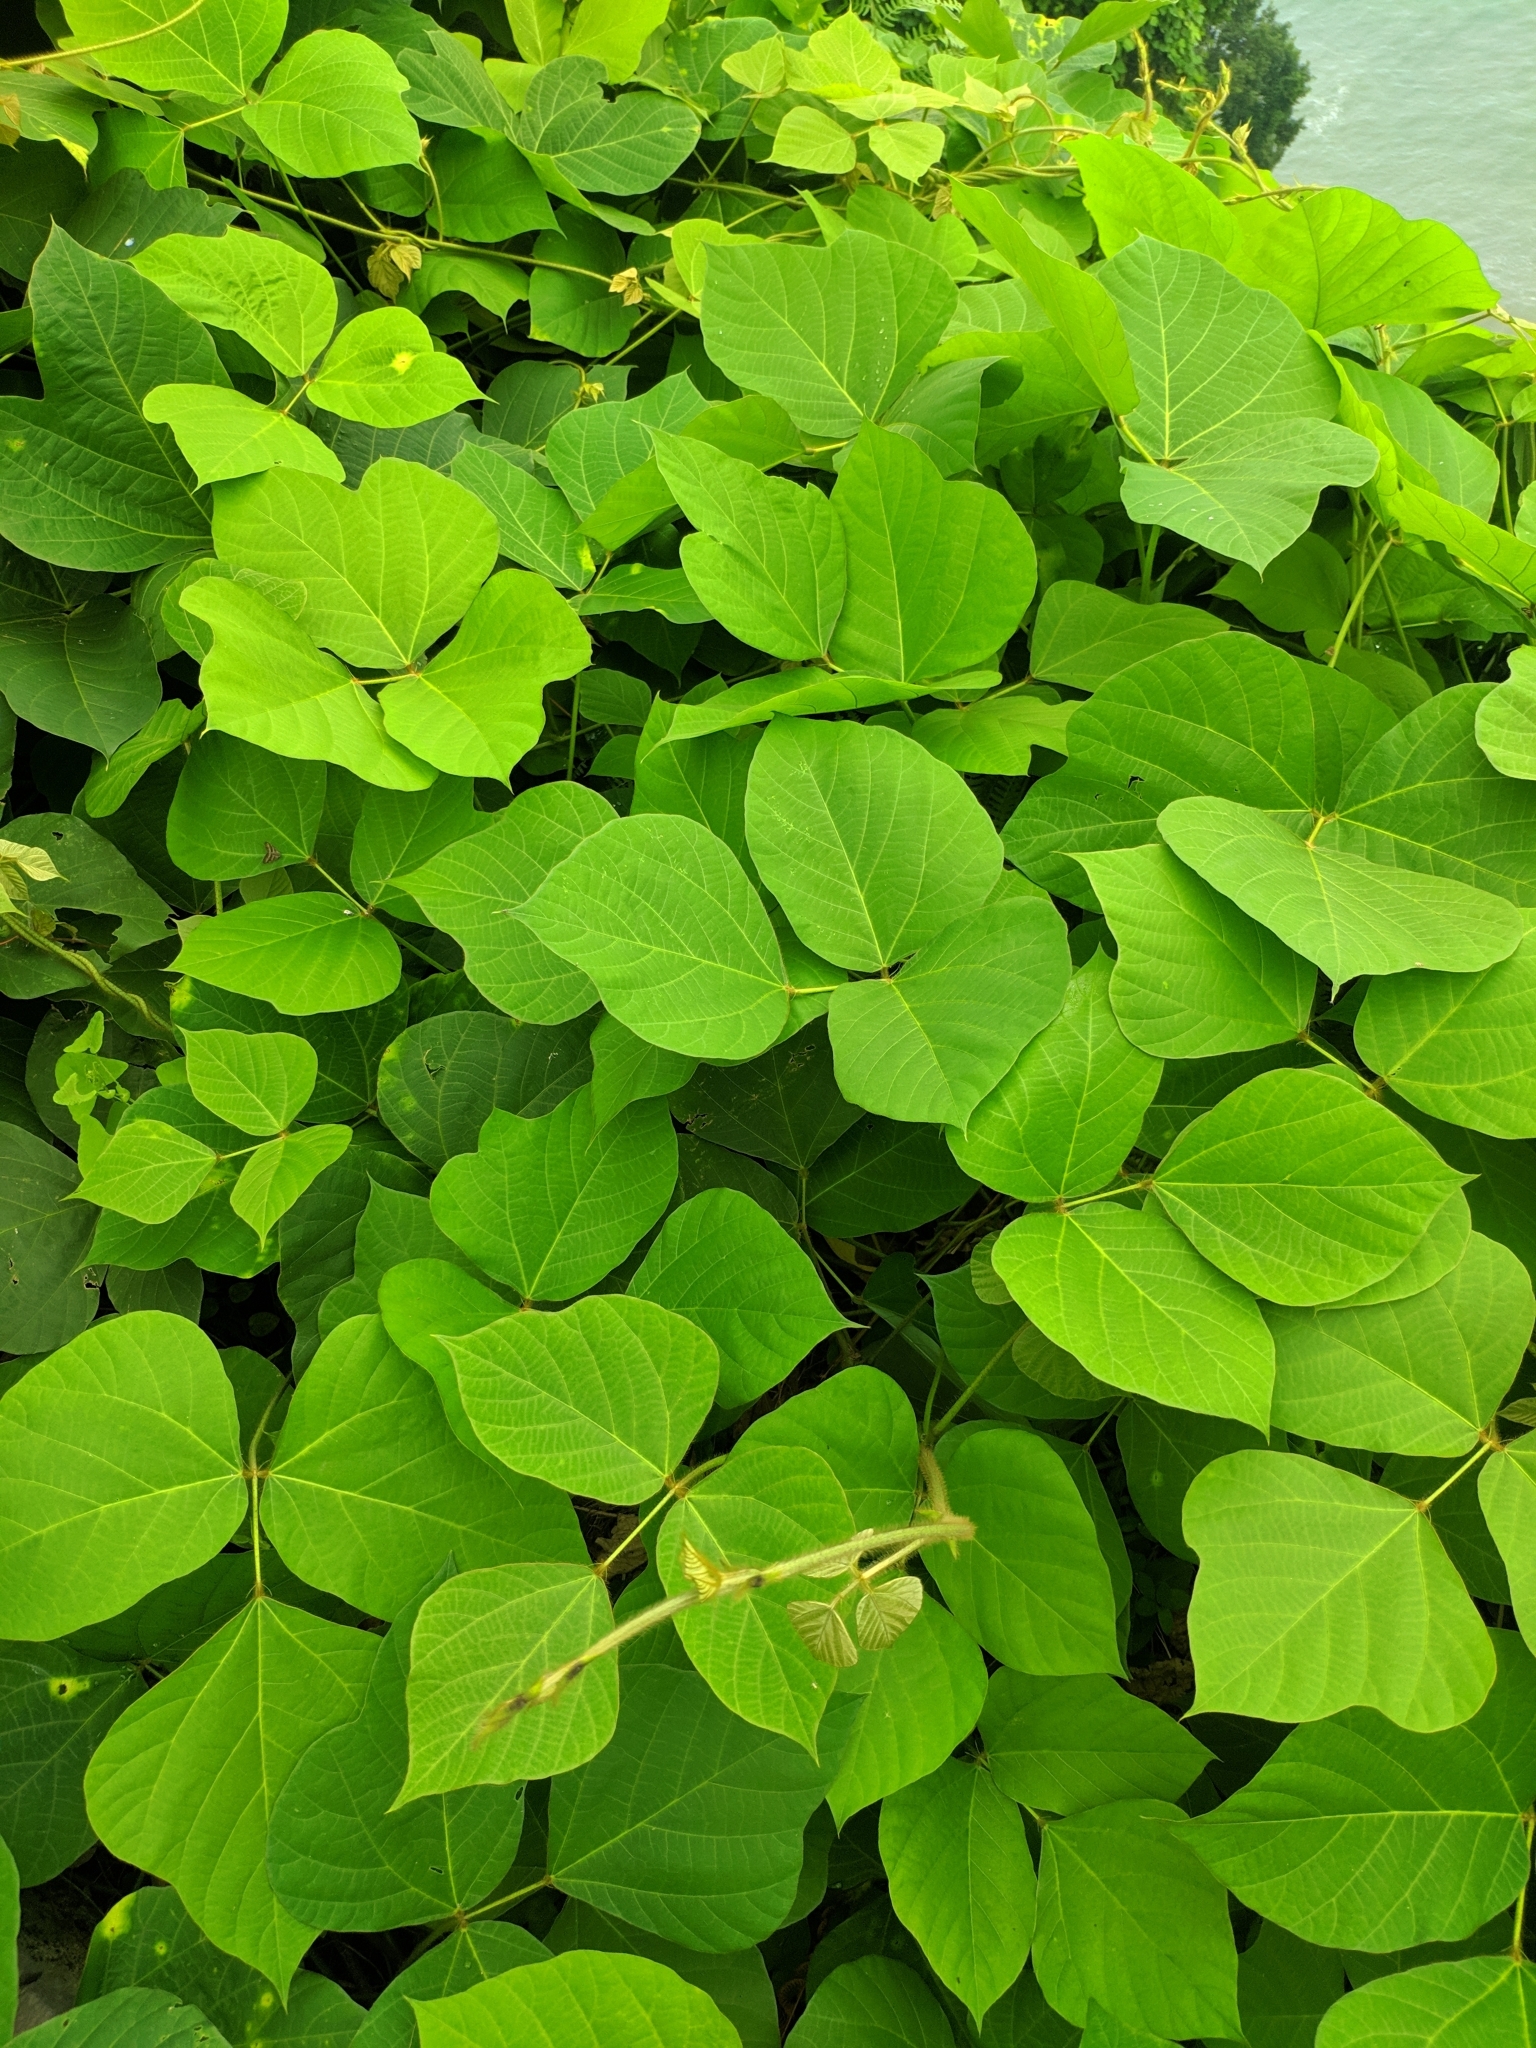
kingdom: Plantae
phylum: Tracheophyta
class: Magnoliopsida
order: Fabales
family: Fabaceae
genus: Pueraria
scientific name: Pueraria montana
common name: Kudzu
